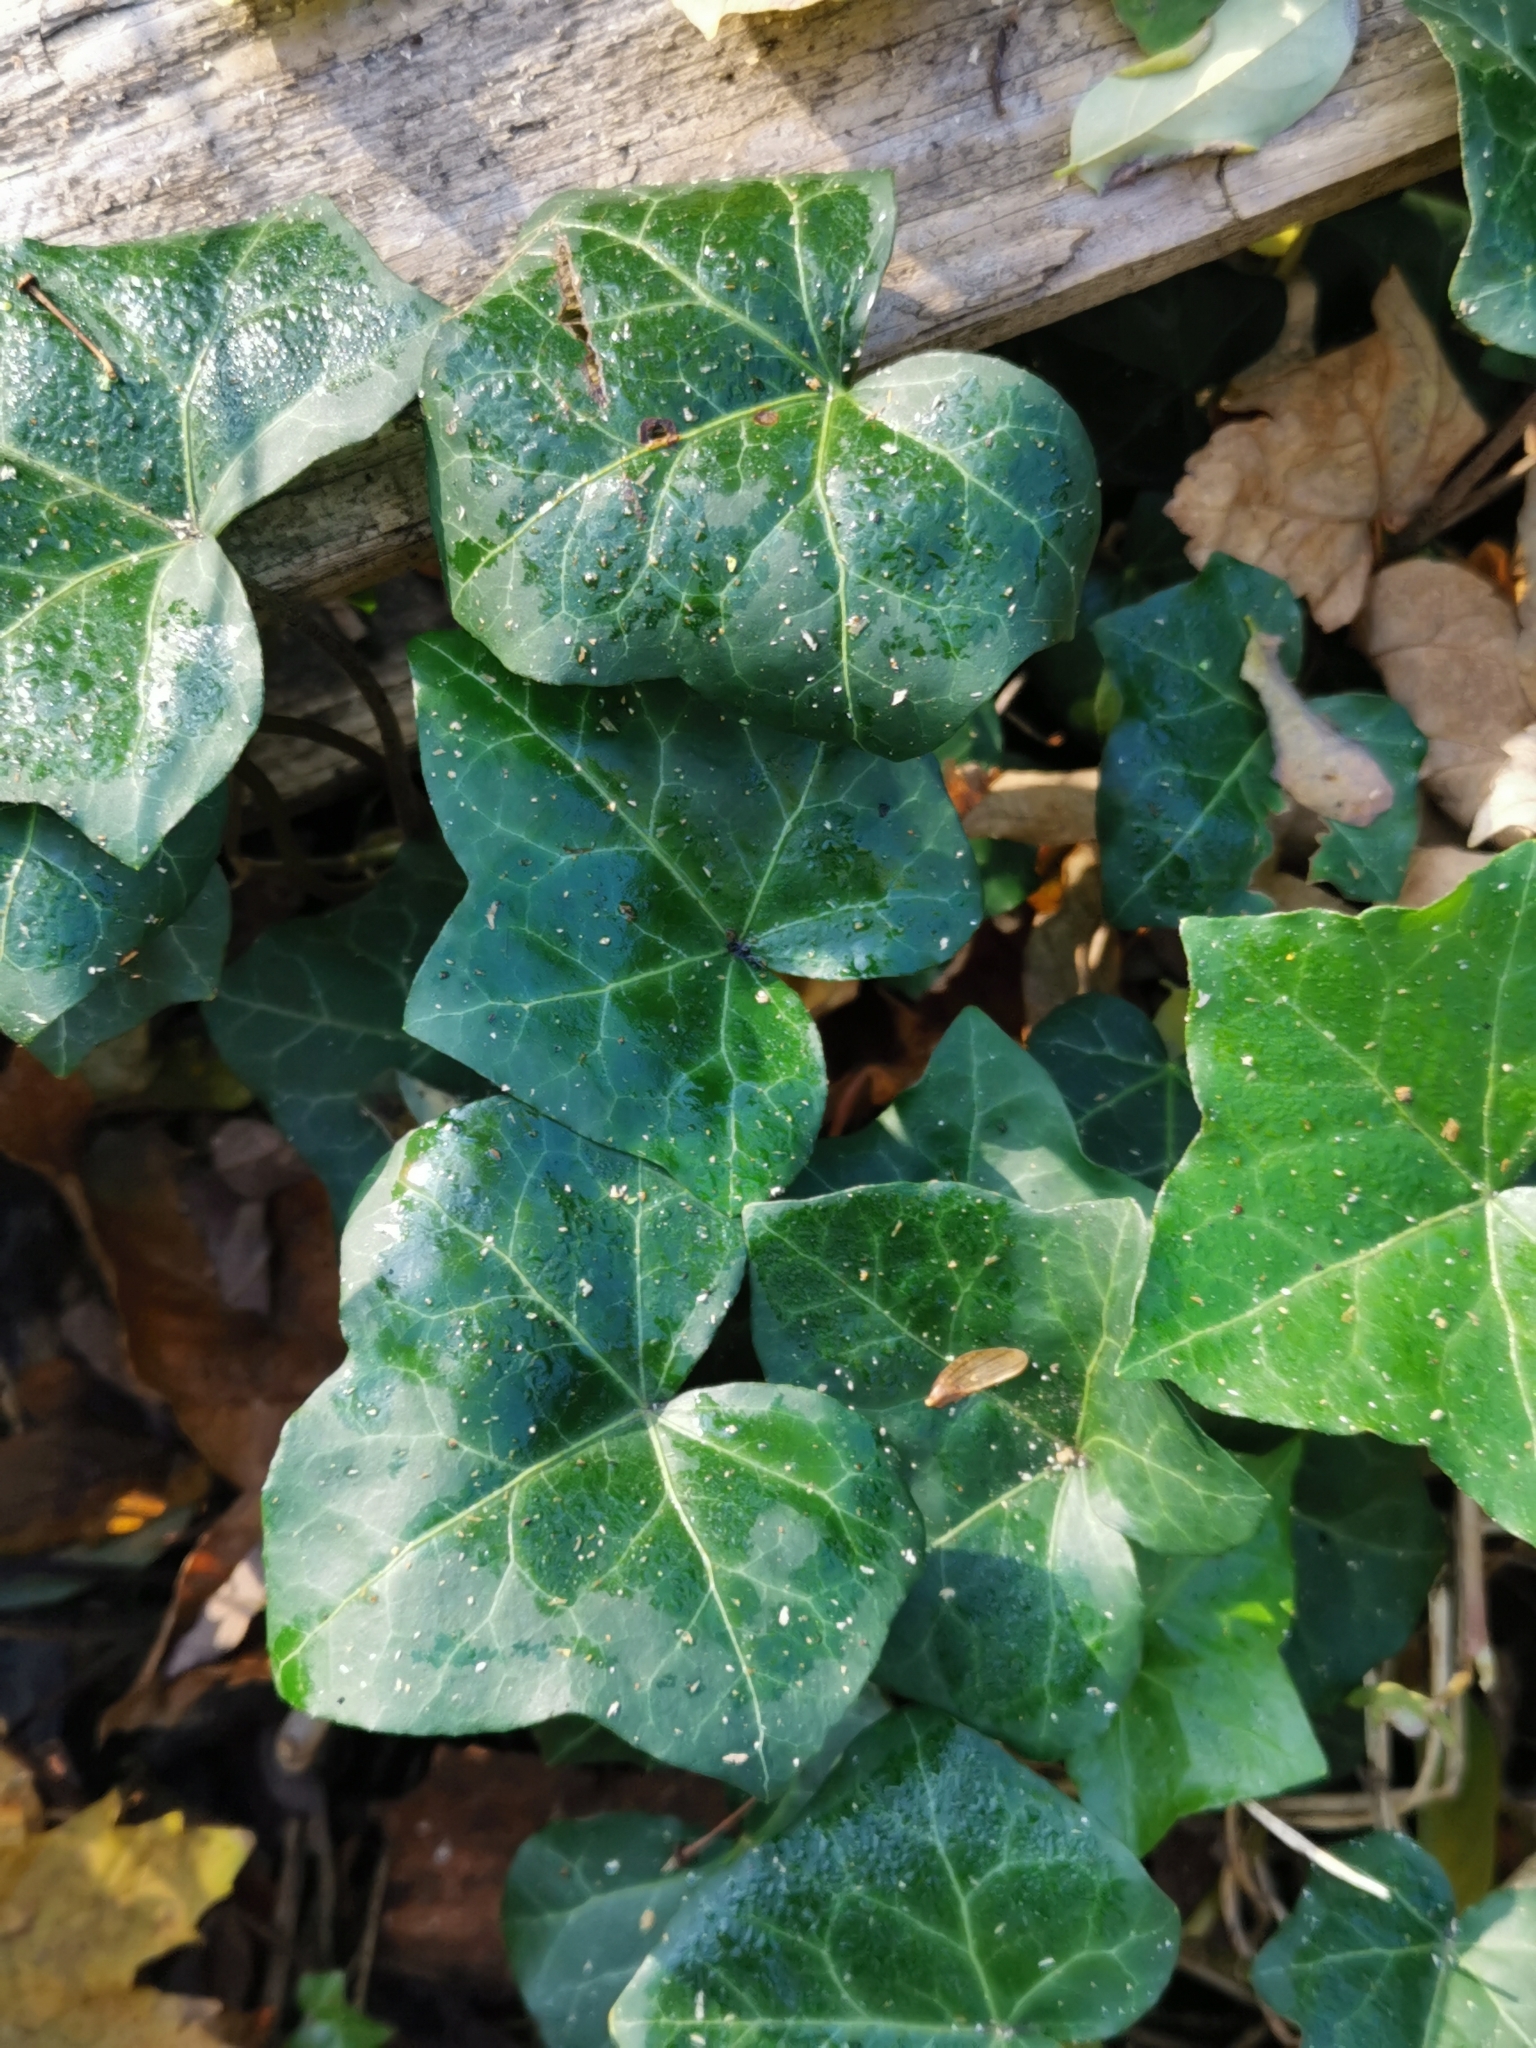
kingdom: Plantae
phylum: Tracheophyta
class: Magnoliopsida
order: Apiales
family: Araliaceae
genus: Hedera
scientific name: Hedera helix
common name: Ivy
